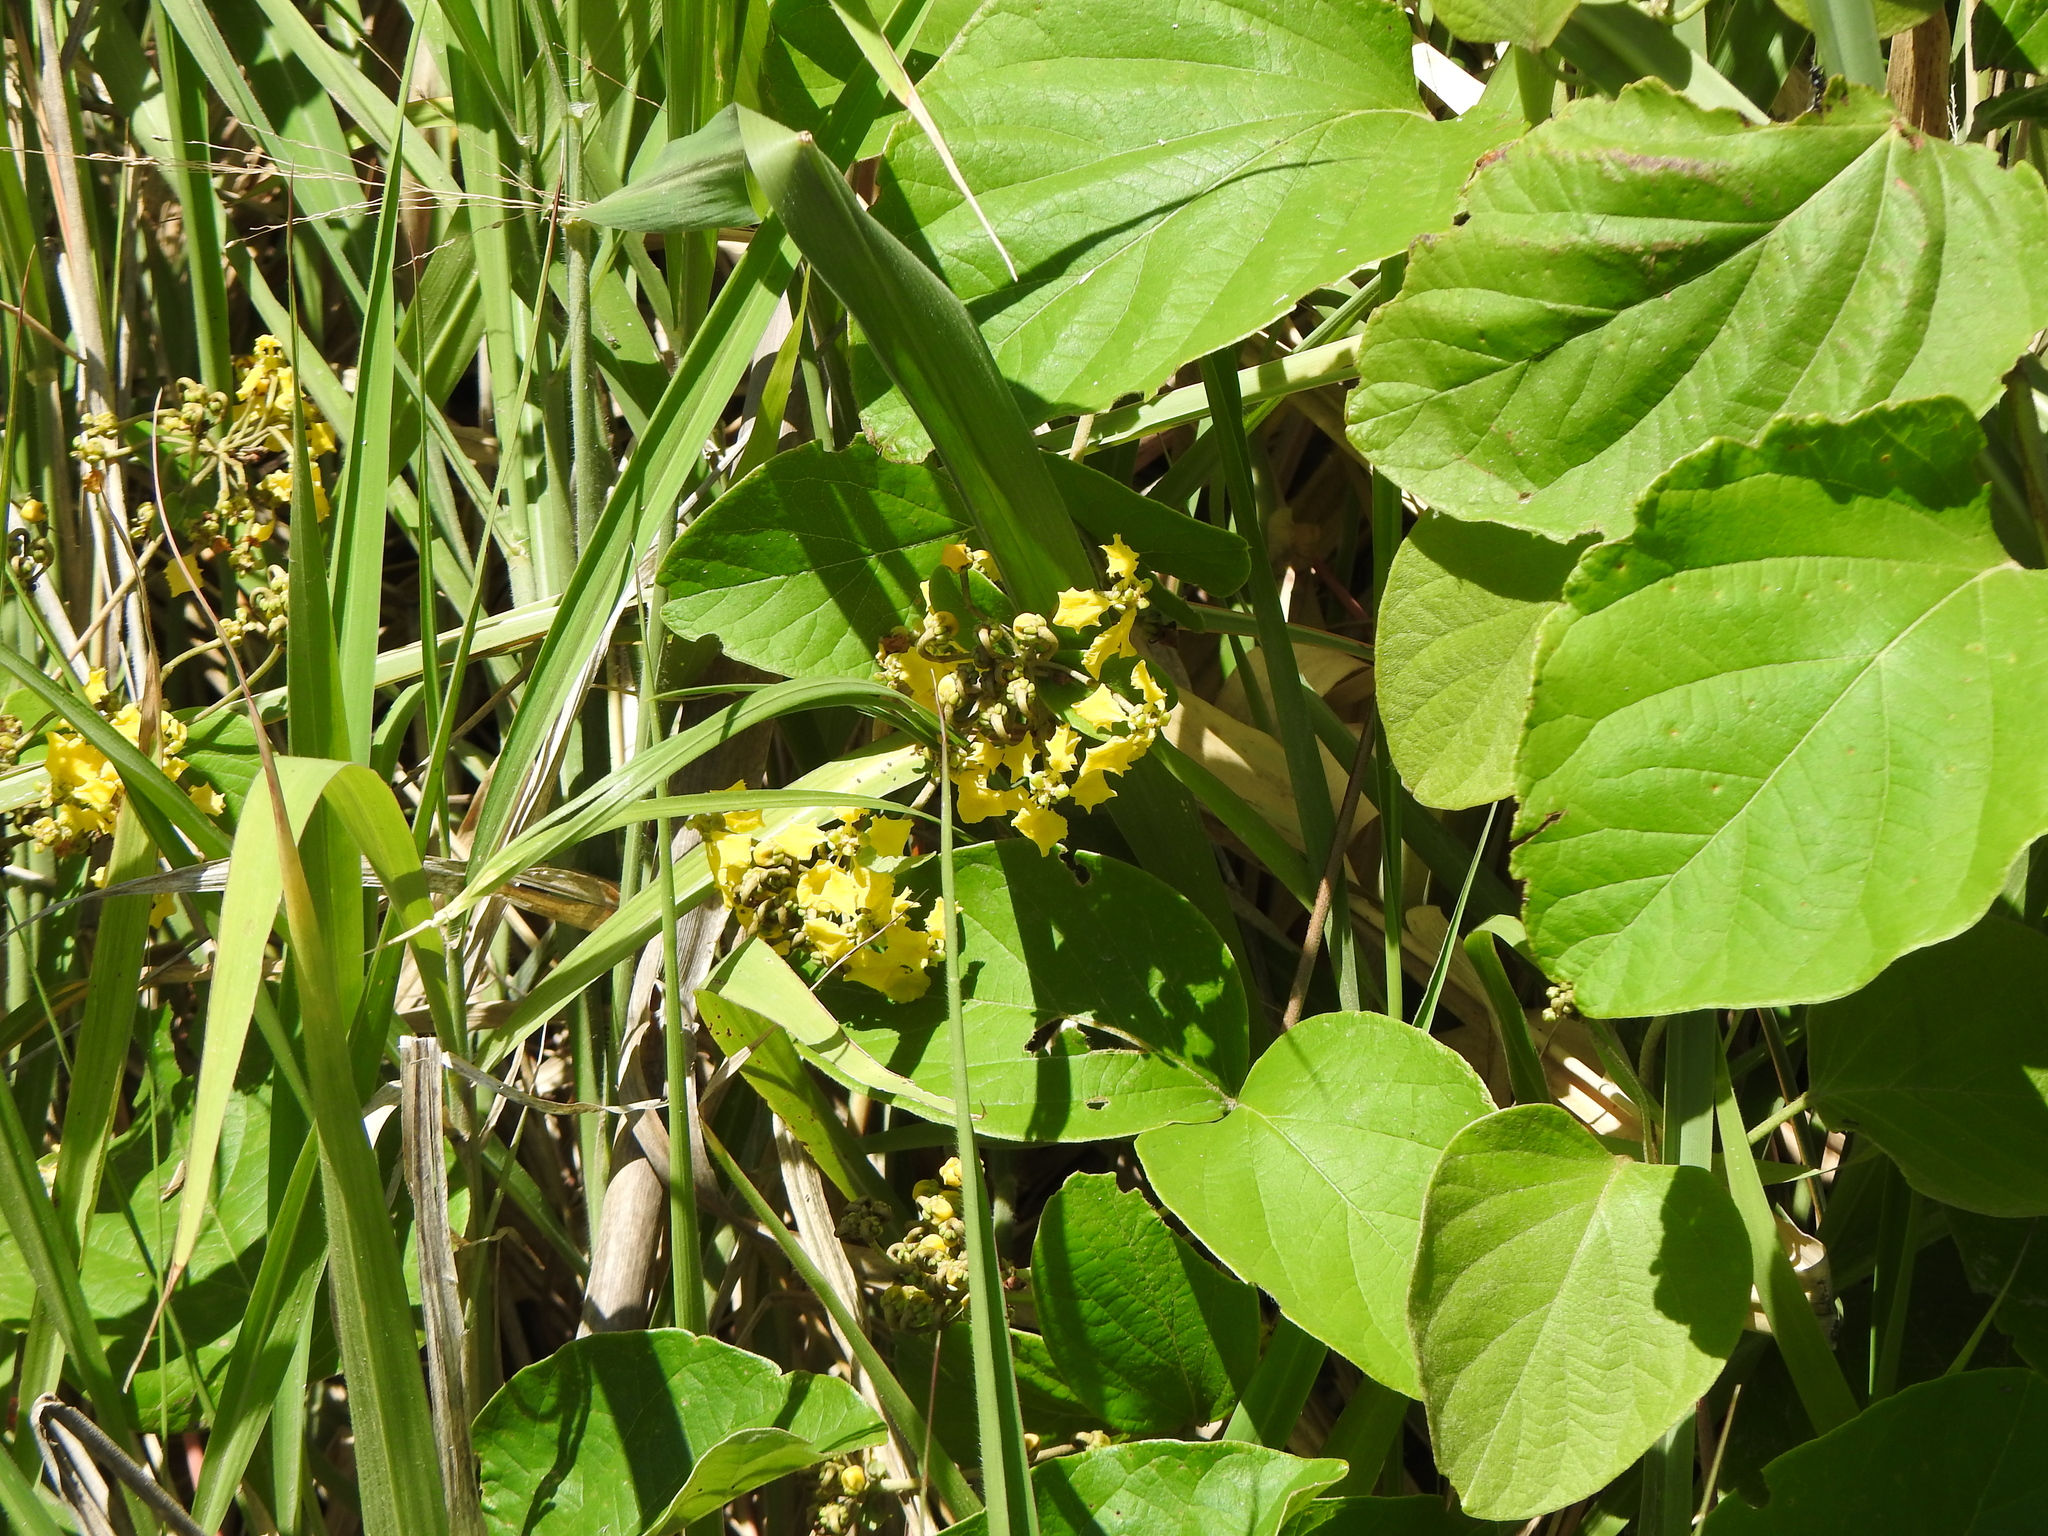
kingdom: Plantae
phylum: Tracheophyta
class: Magnoliopsida
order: Malpighiales
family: Malpighiaceae
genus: Stigmaphyllon
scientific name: Stigmaphyllon bonariense
